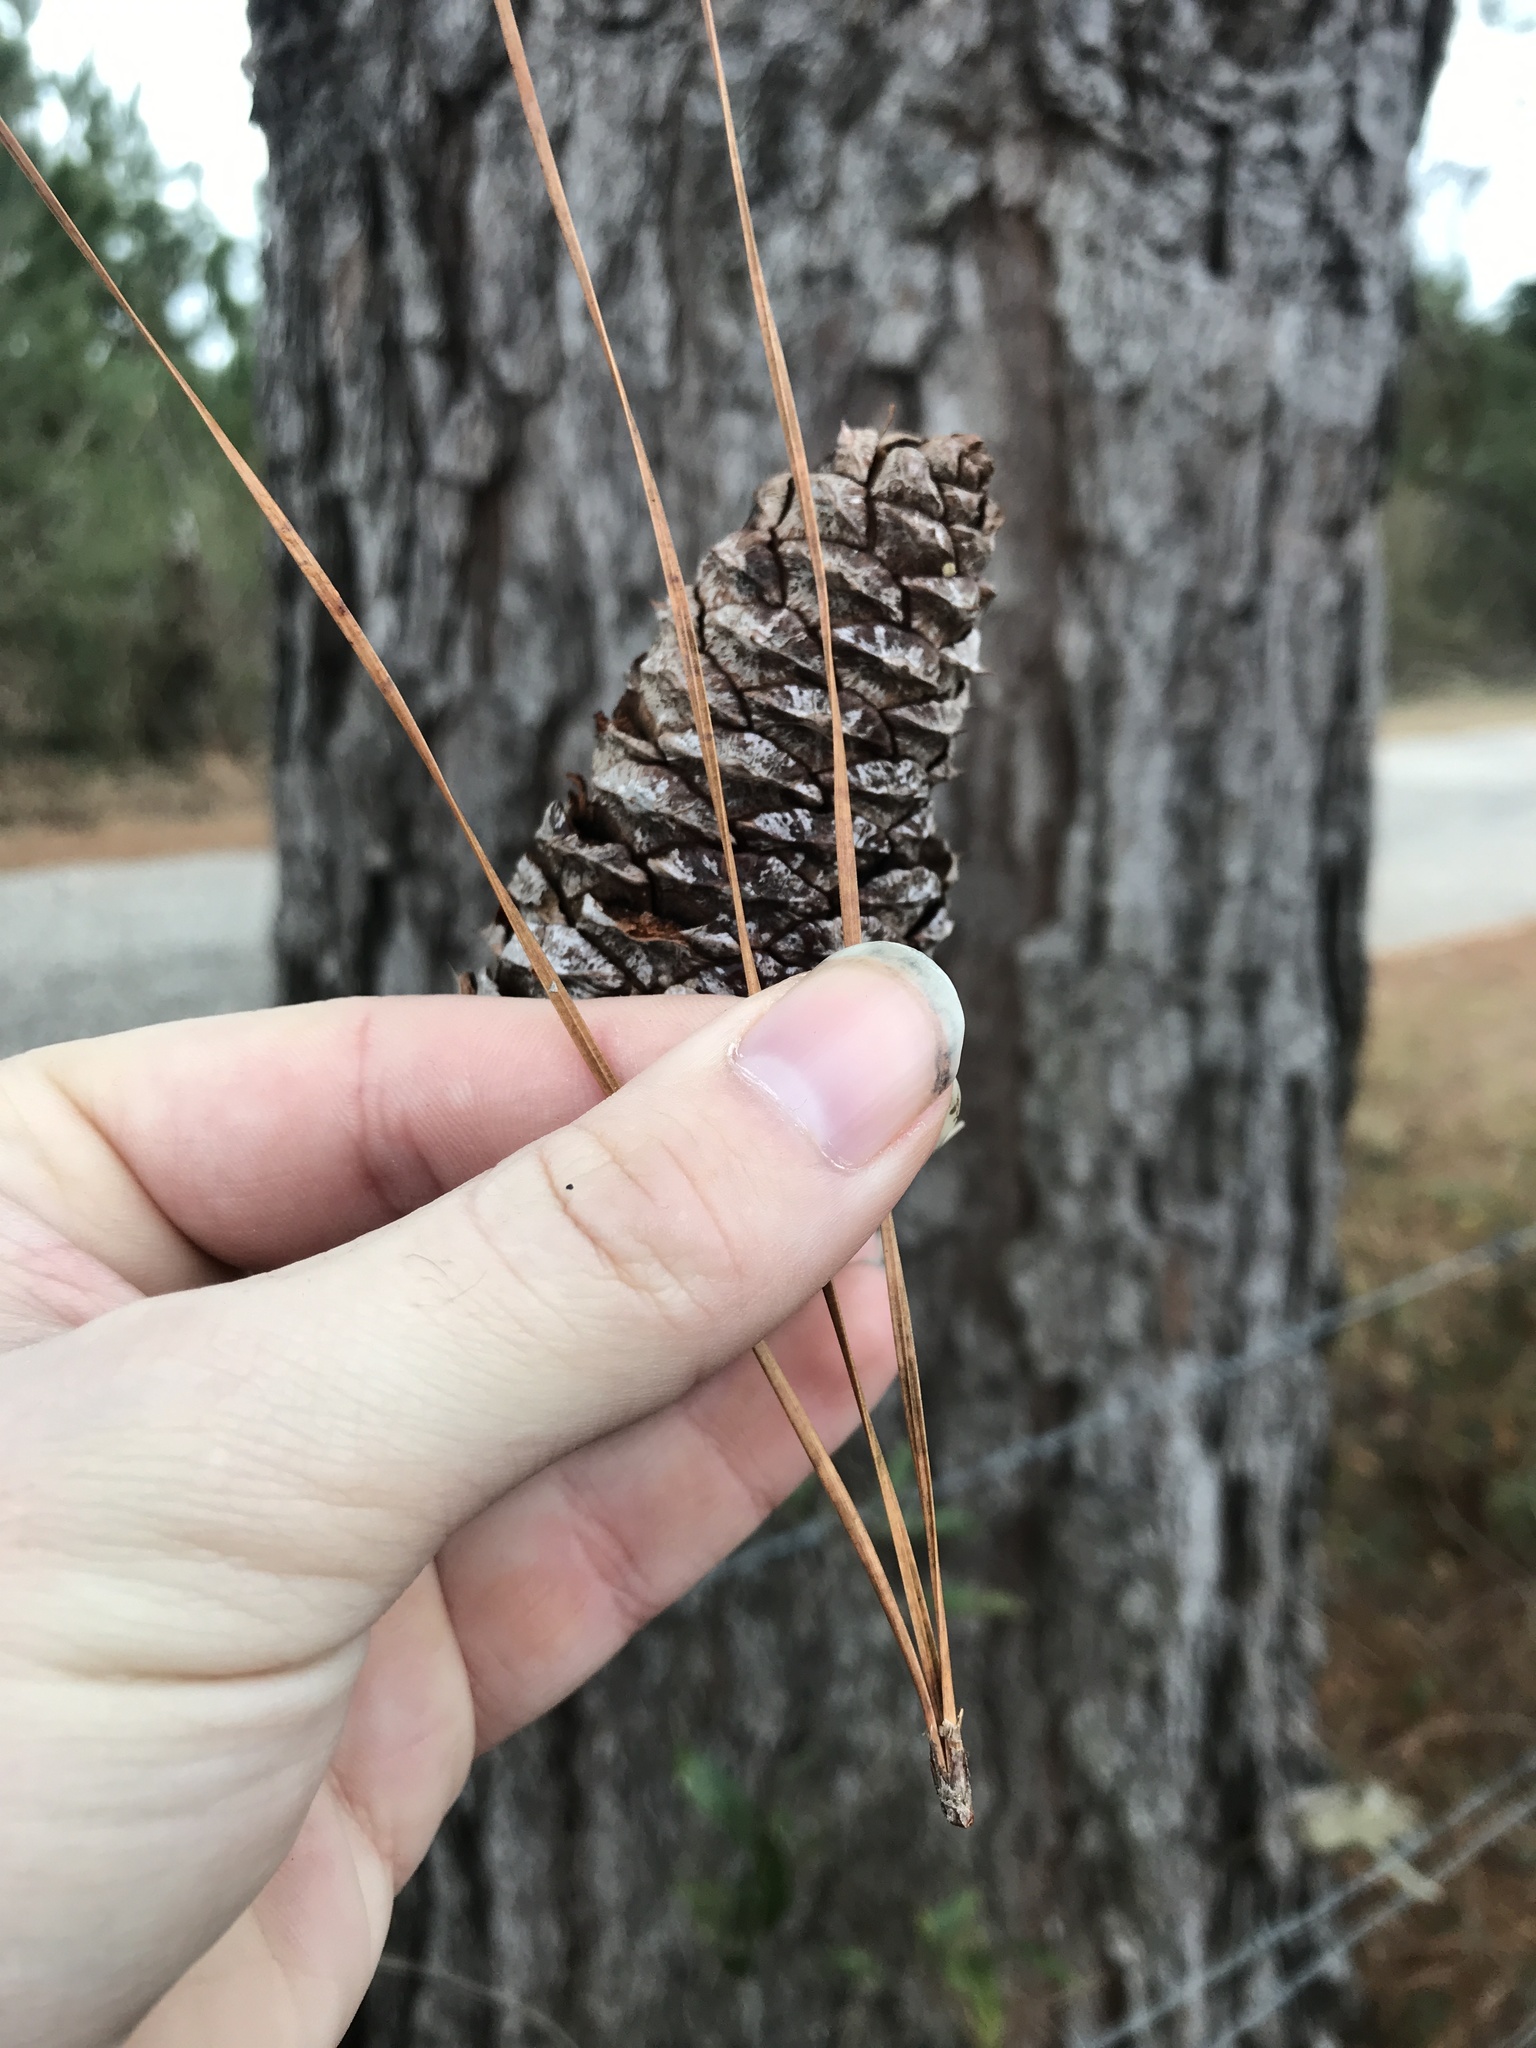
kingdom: Plantae
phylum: Tracheophyta
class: Pinopsida
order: Pinales
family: Pinaceae
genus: Pinus
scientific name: Pinus taeda
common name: Loblolly pine
